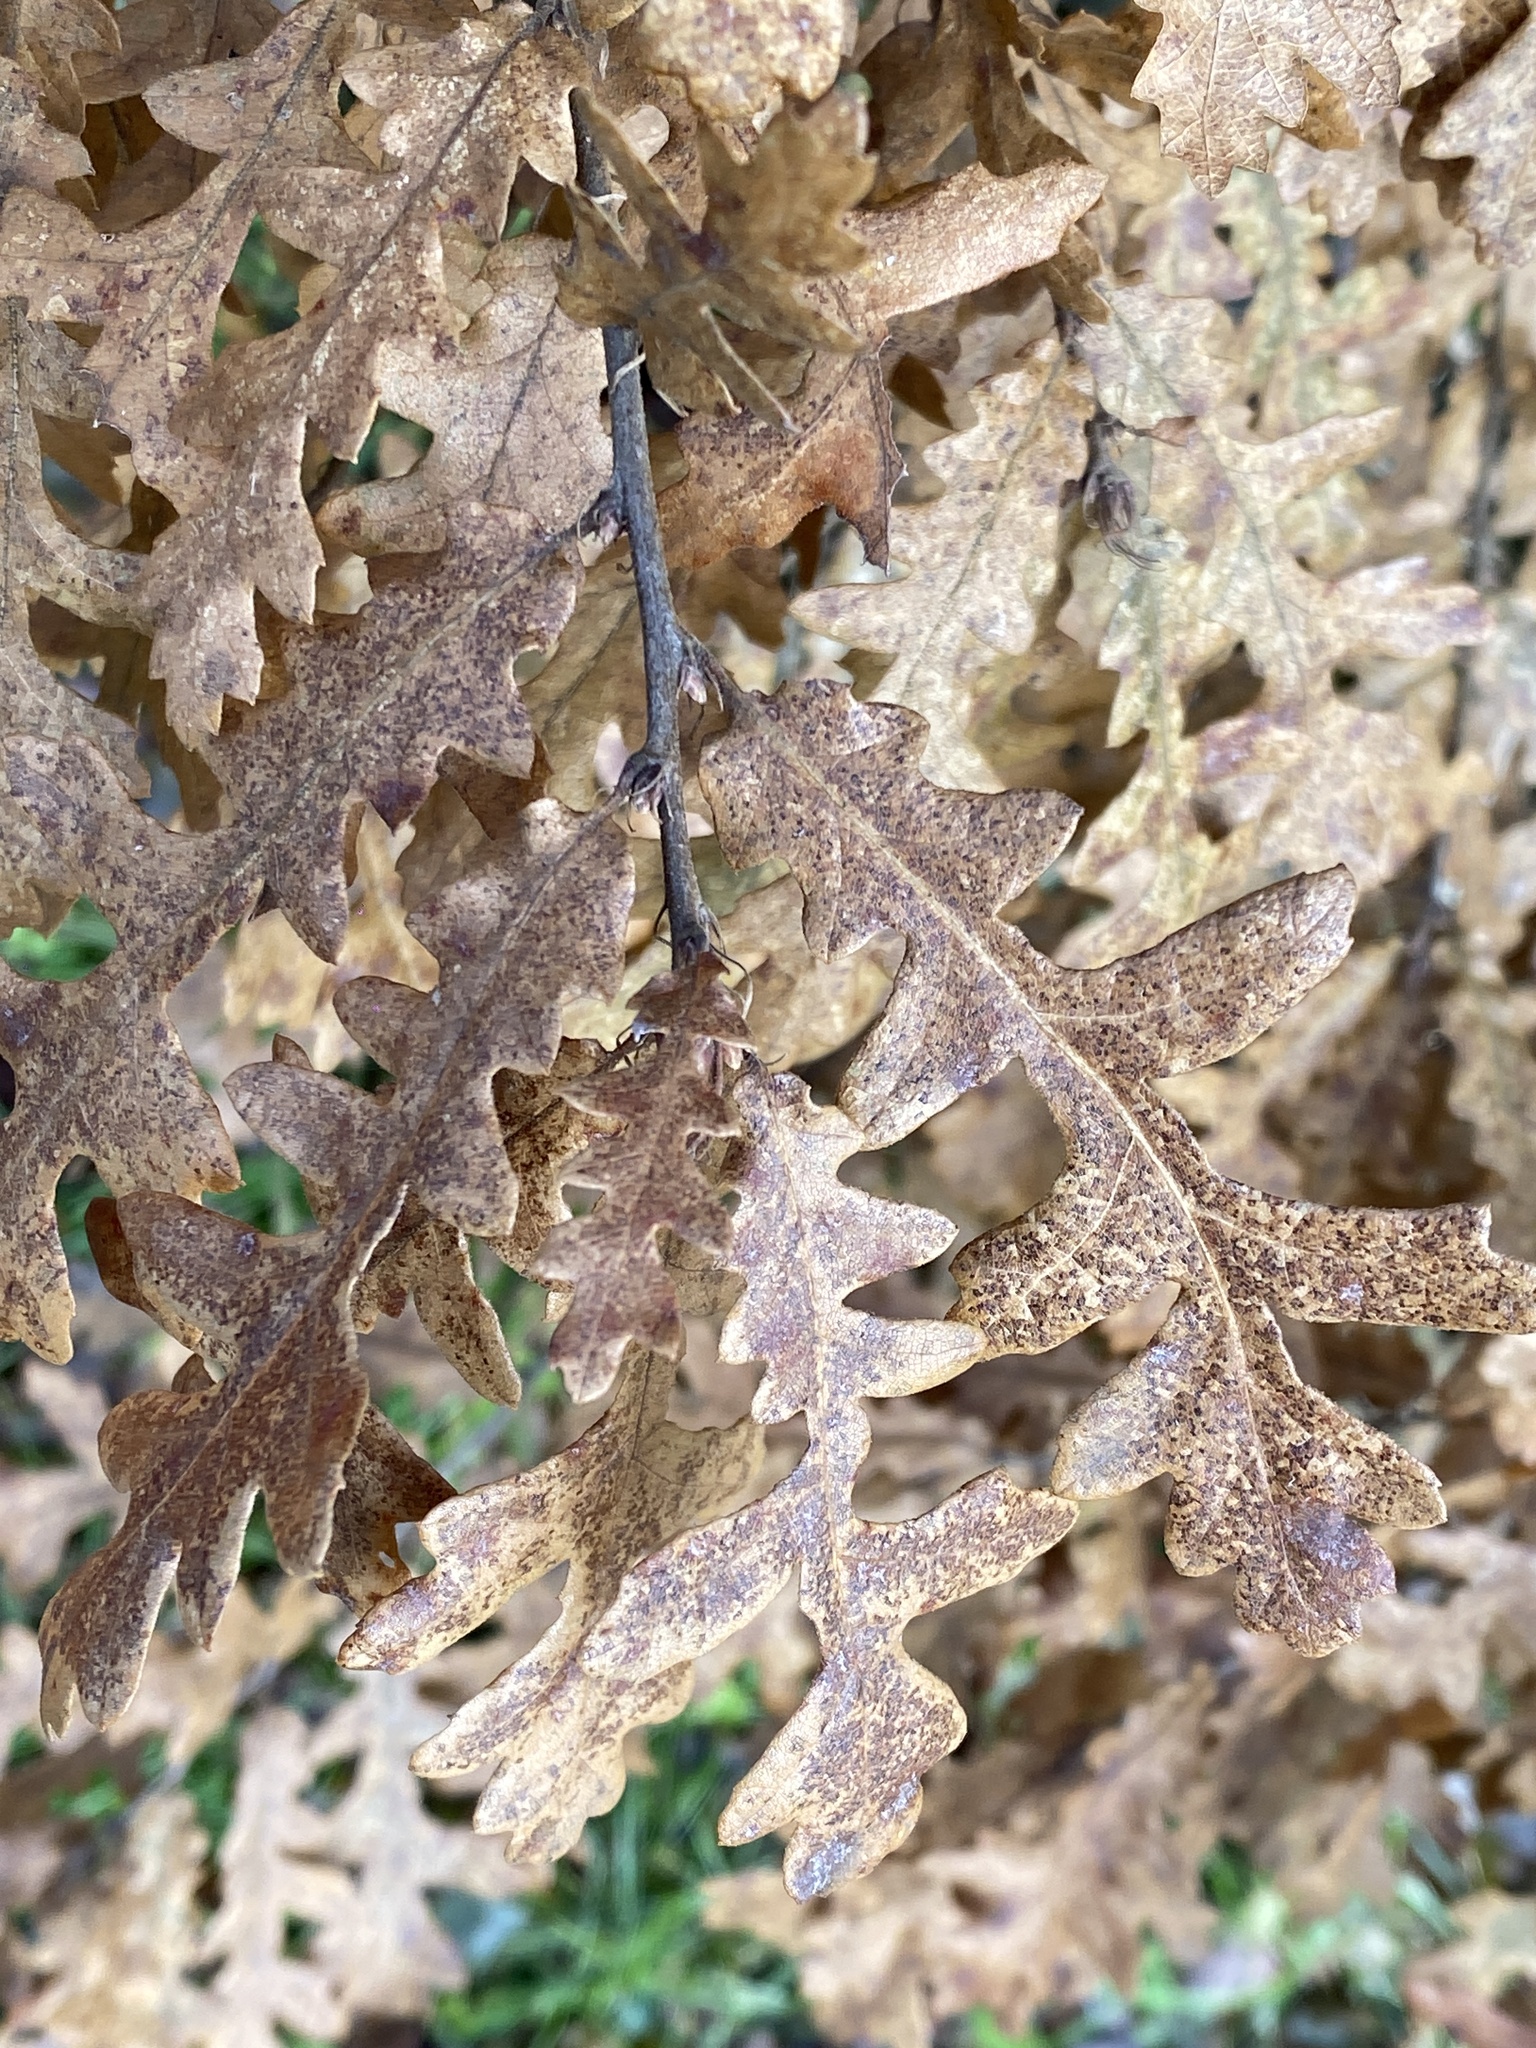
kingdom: Plantae
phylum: Tracheophyta
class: Magnoliopsida
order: Fagales
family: Fagaceae
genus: Quercus
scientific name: Quercus cerris
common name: Turkey oak
